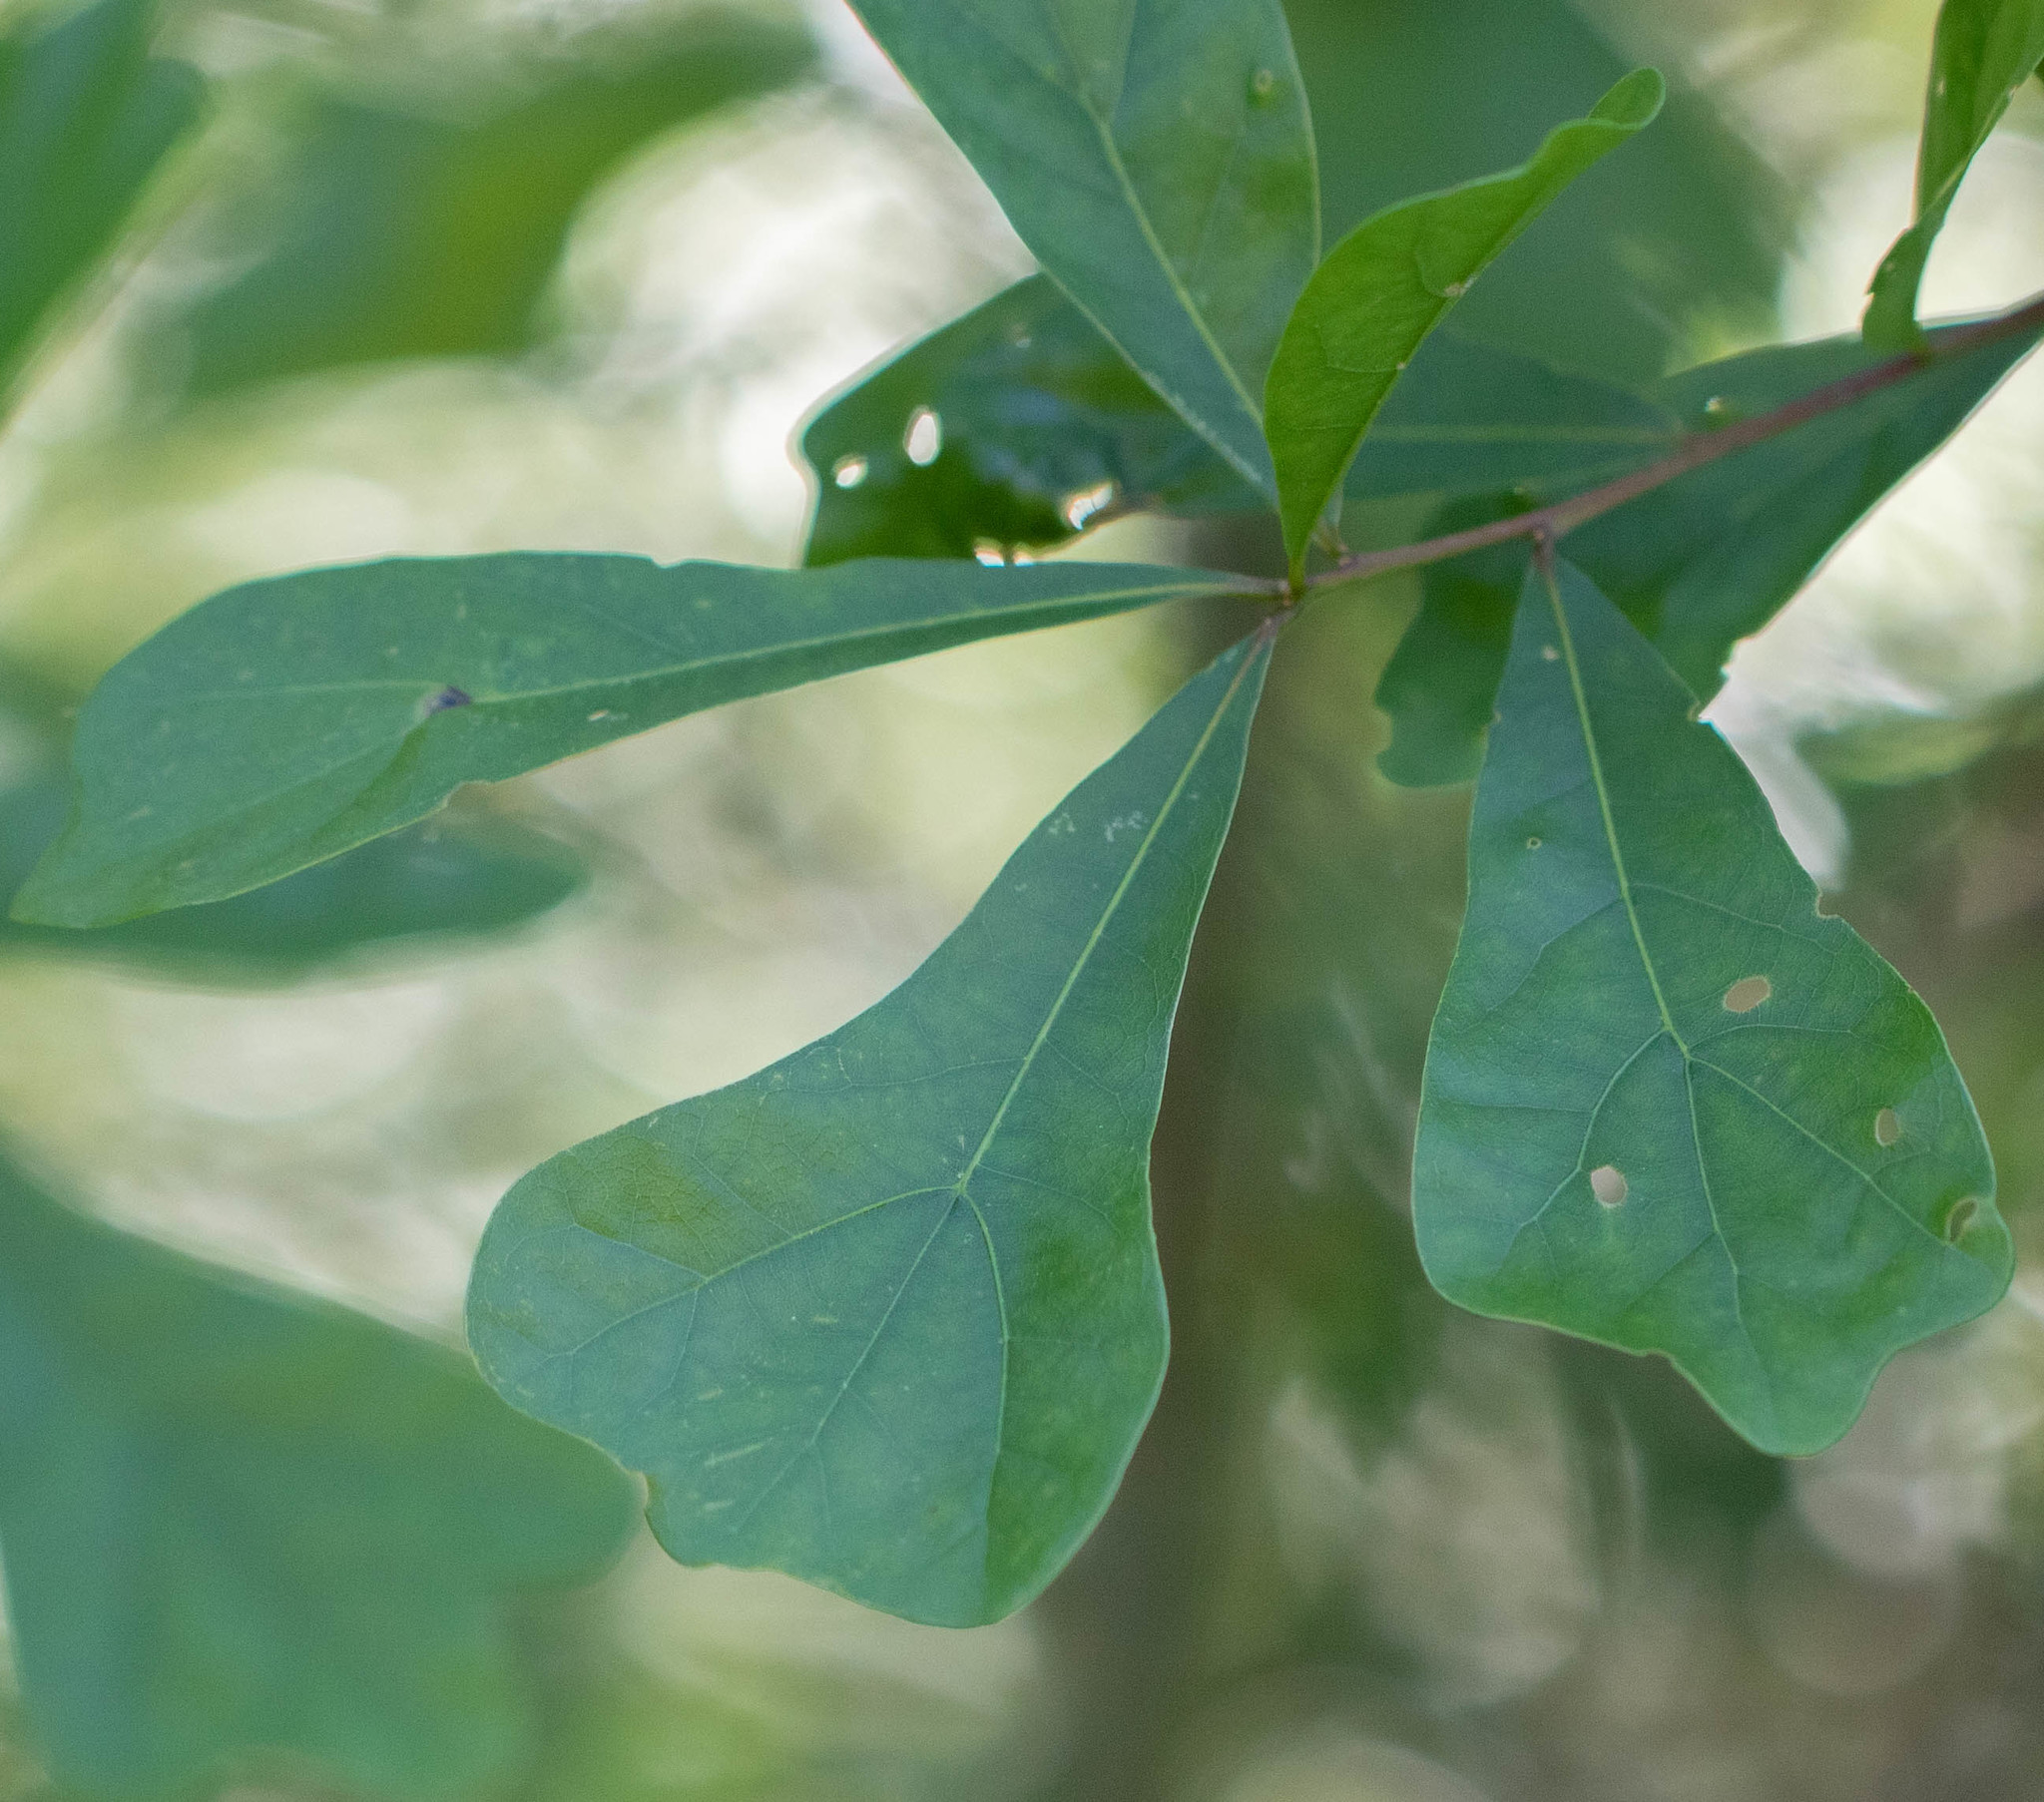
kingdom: Plantae
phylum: Tracheophyta
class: Magnoliopsida
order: Fagales
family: Fagaceae
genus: Quercus
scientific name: Quercus nigra
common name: Water oak
